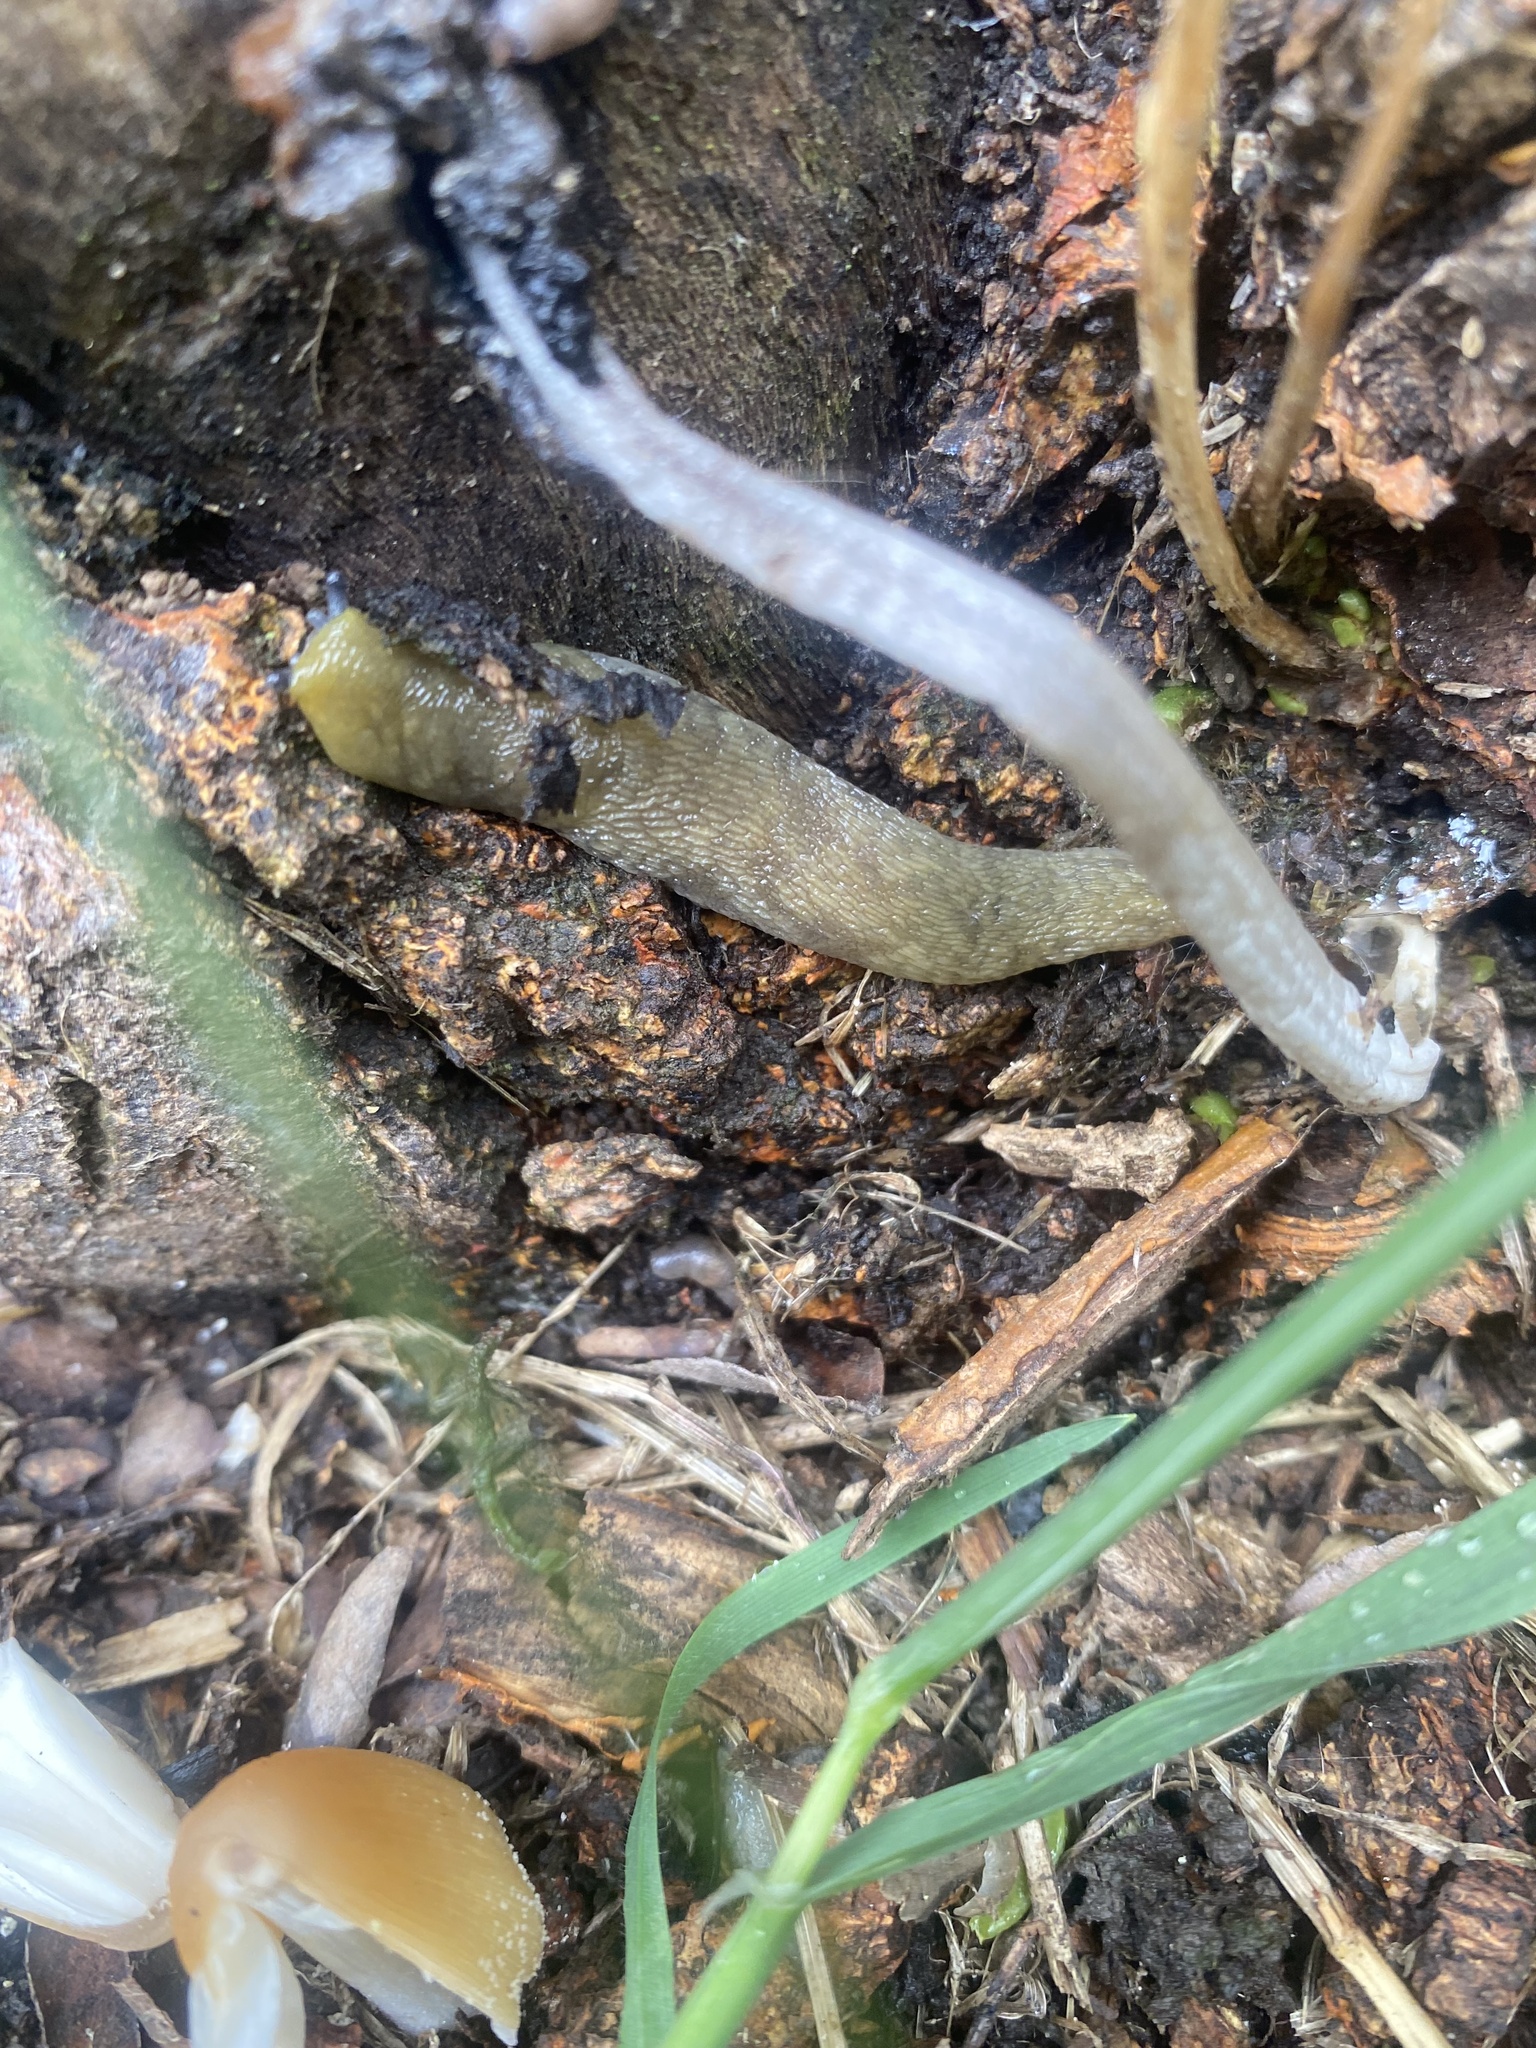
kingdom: Animalia
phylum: Mollusca
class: Gastropoda
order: Stylommatophora
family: Limacidae
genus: Limacus
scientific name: Limacus maculatus
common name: Irish yellow slug
